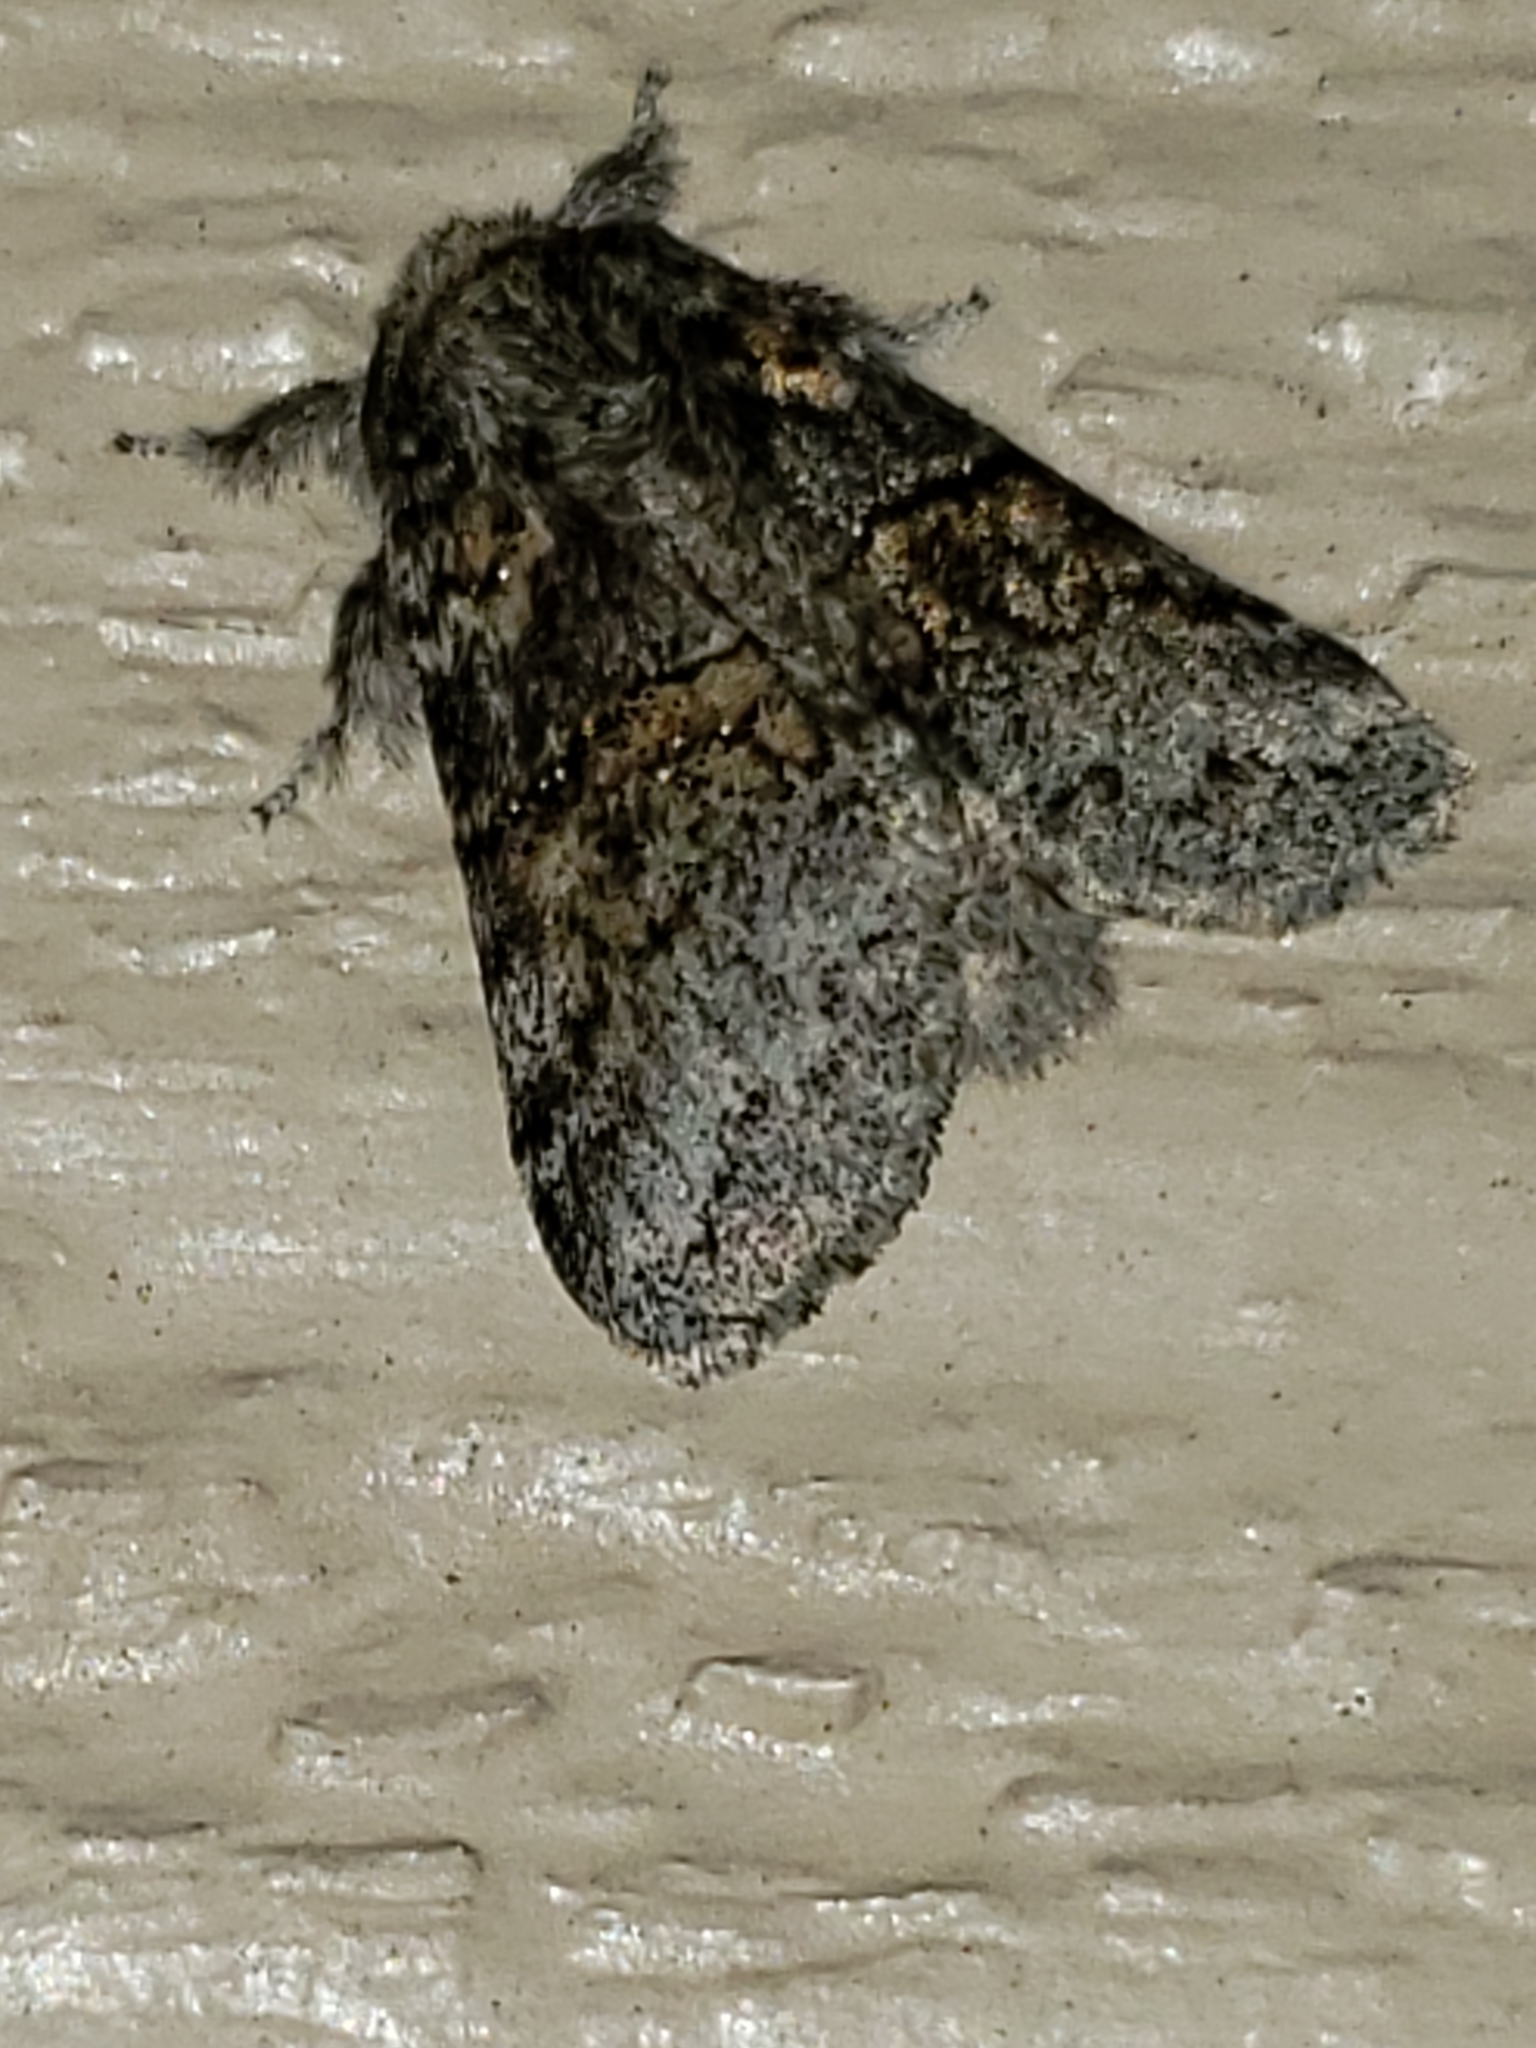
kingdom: Animalia
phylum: Arthropoda
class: Insecta
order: Lepidoptera
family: Notodontidae
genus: Gluphisia
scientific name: Gluphisia septentrionis
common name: Common gluphisia
